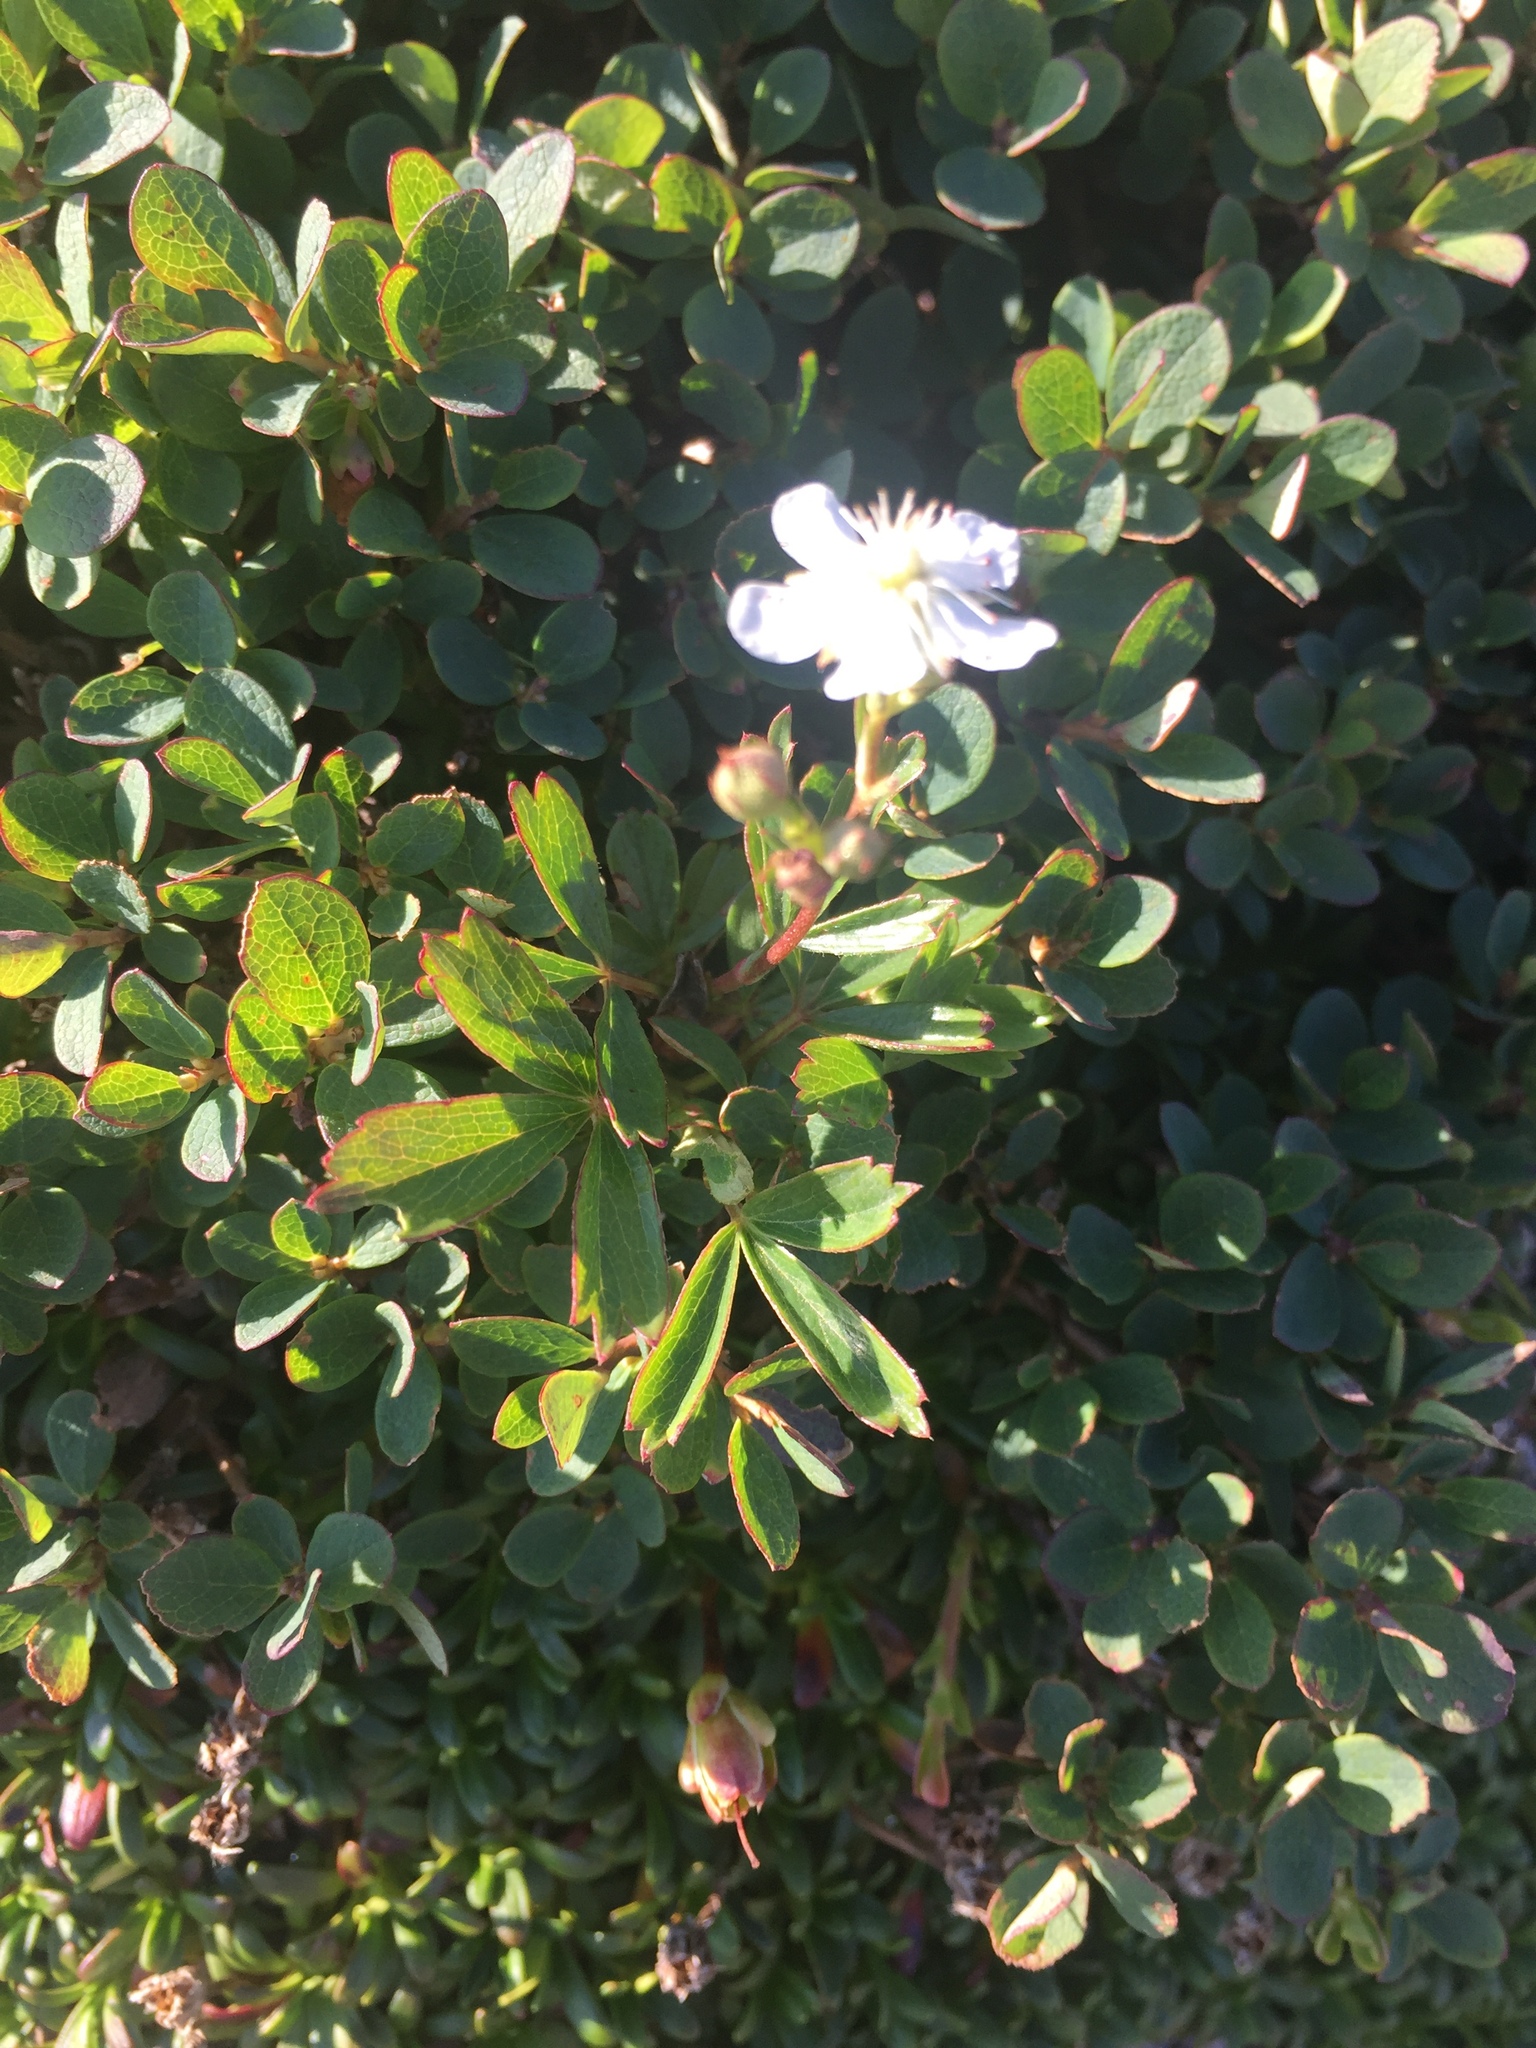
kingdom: Plantae
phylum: Tracheophyta
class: Magnoliopsida
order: Rosales
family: Rosaceae
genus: Sibbaldia
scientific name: Sibbaldia tridentata
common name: Three-toothed cinquefoil
